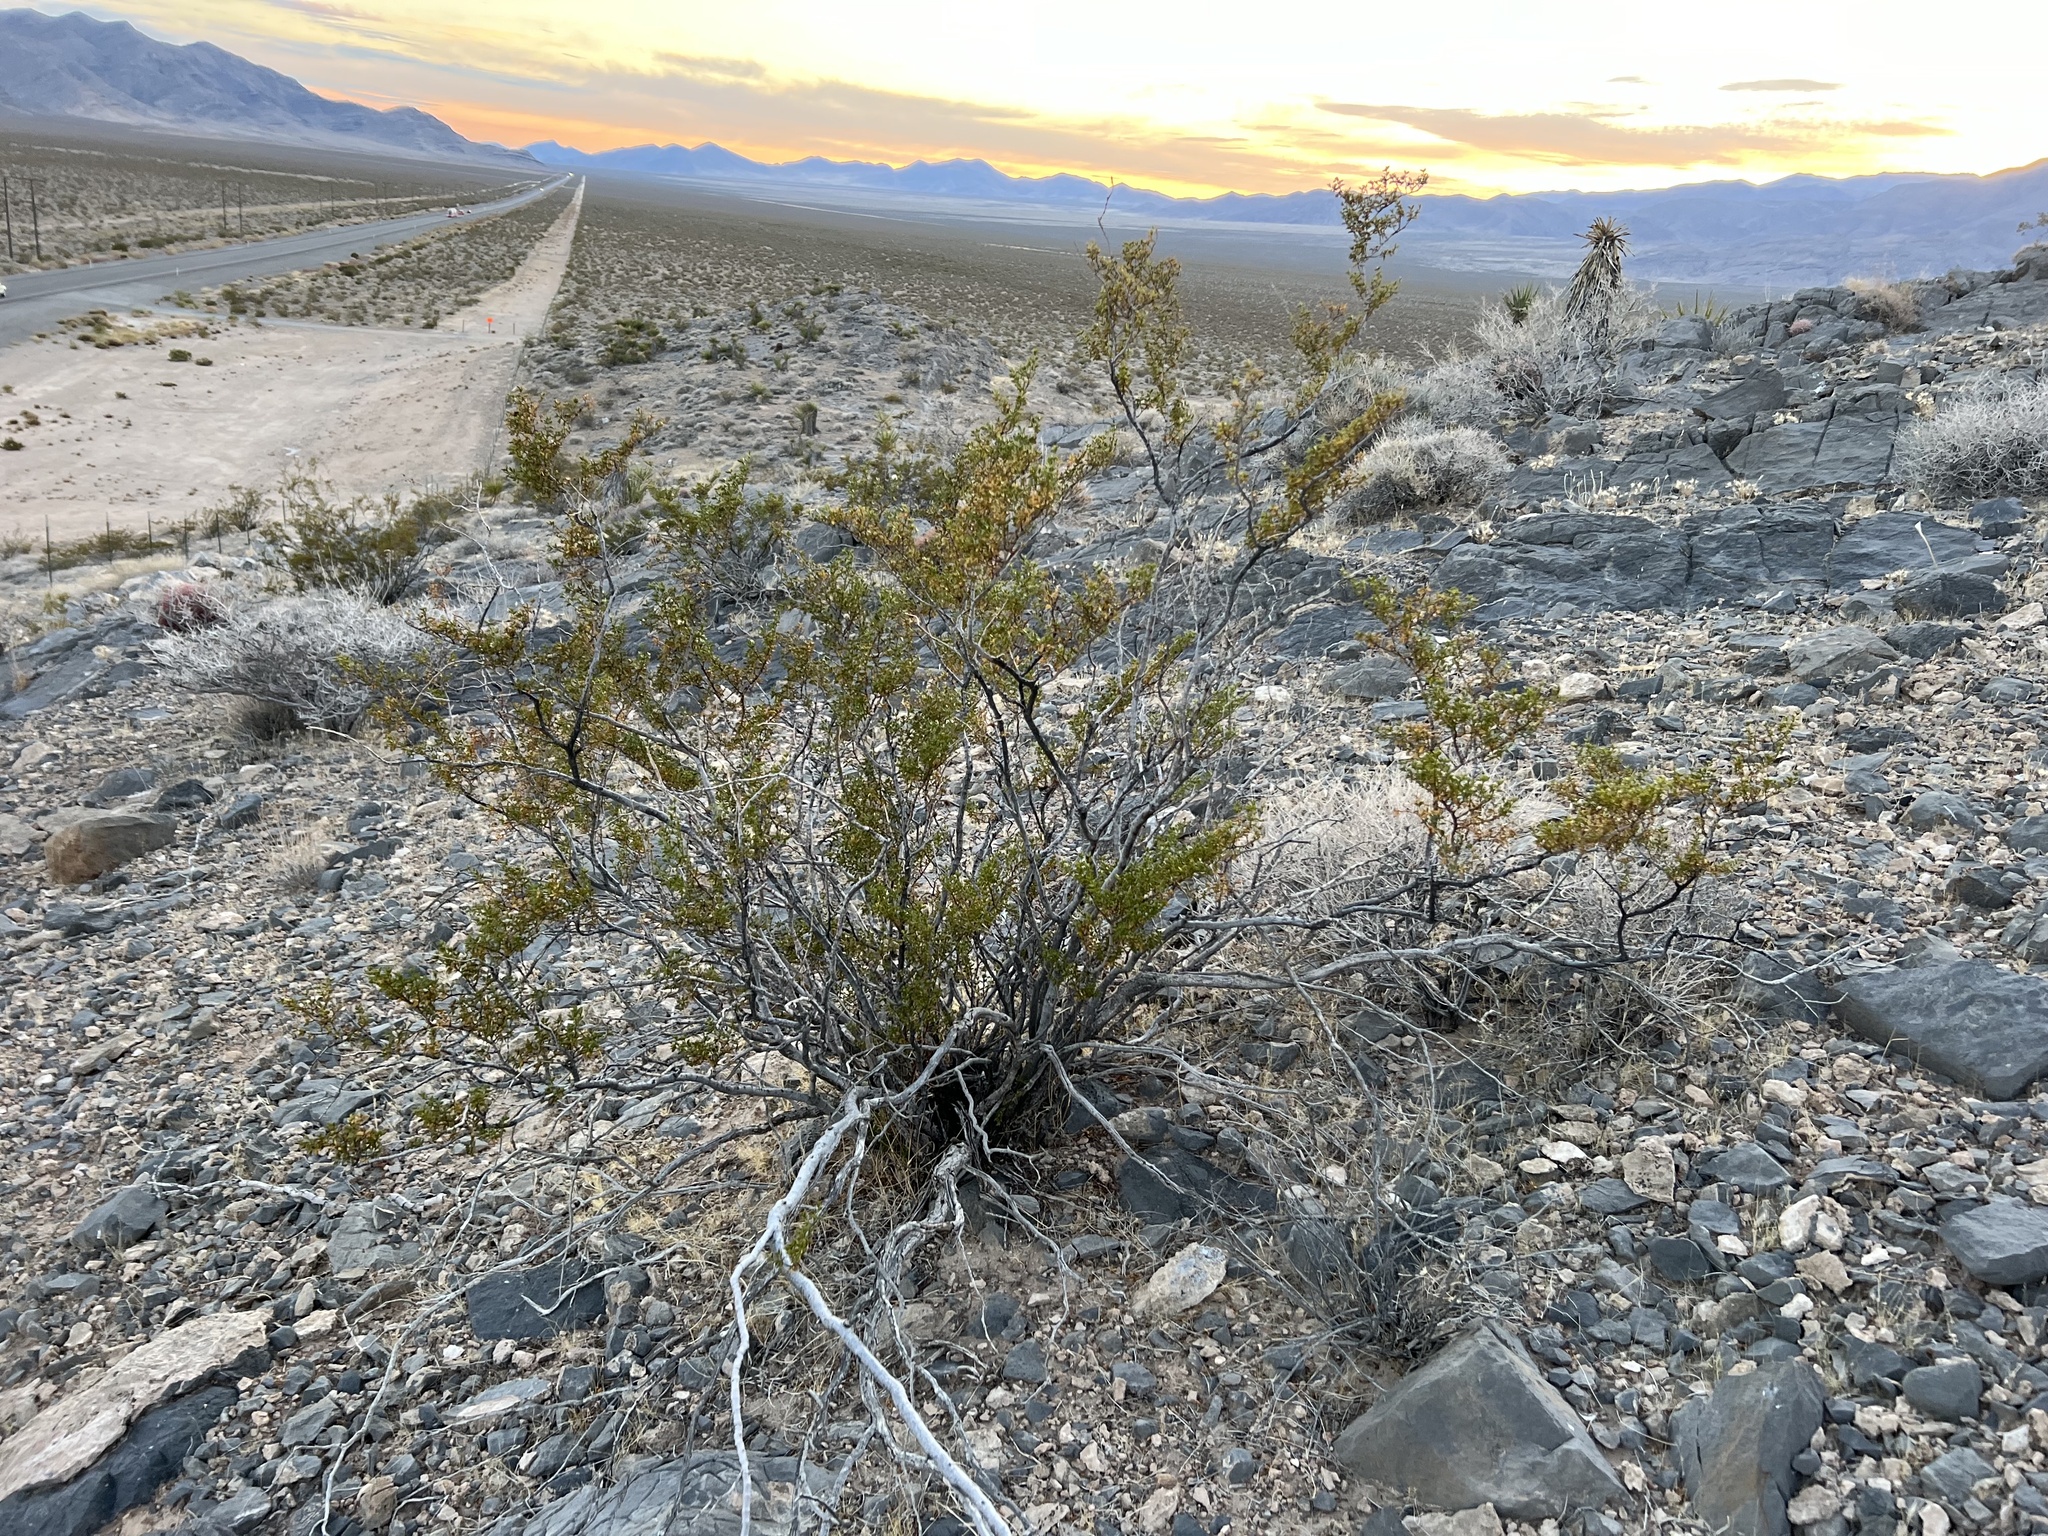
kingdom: Plantae
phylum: Tracheophyta
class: Magnoliopsida
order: Zygophyllales
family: Zygophyllaceae
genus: Larrea
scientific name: Larrea tridentata
